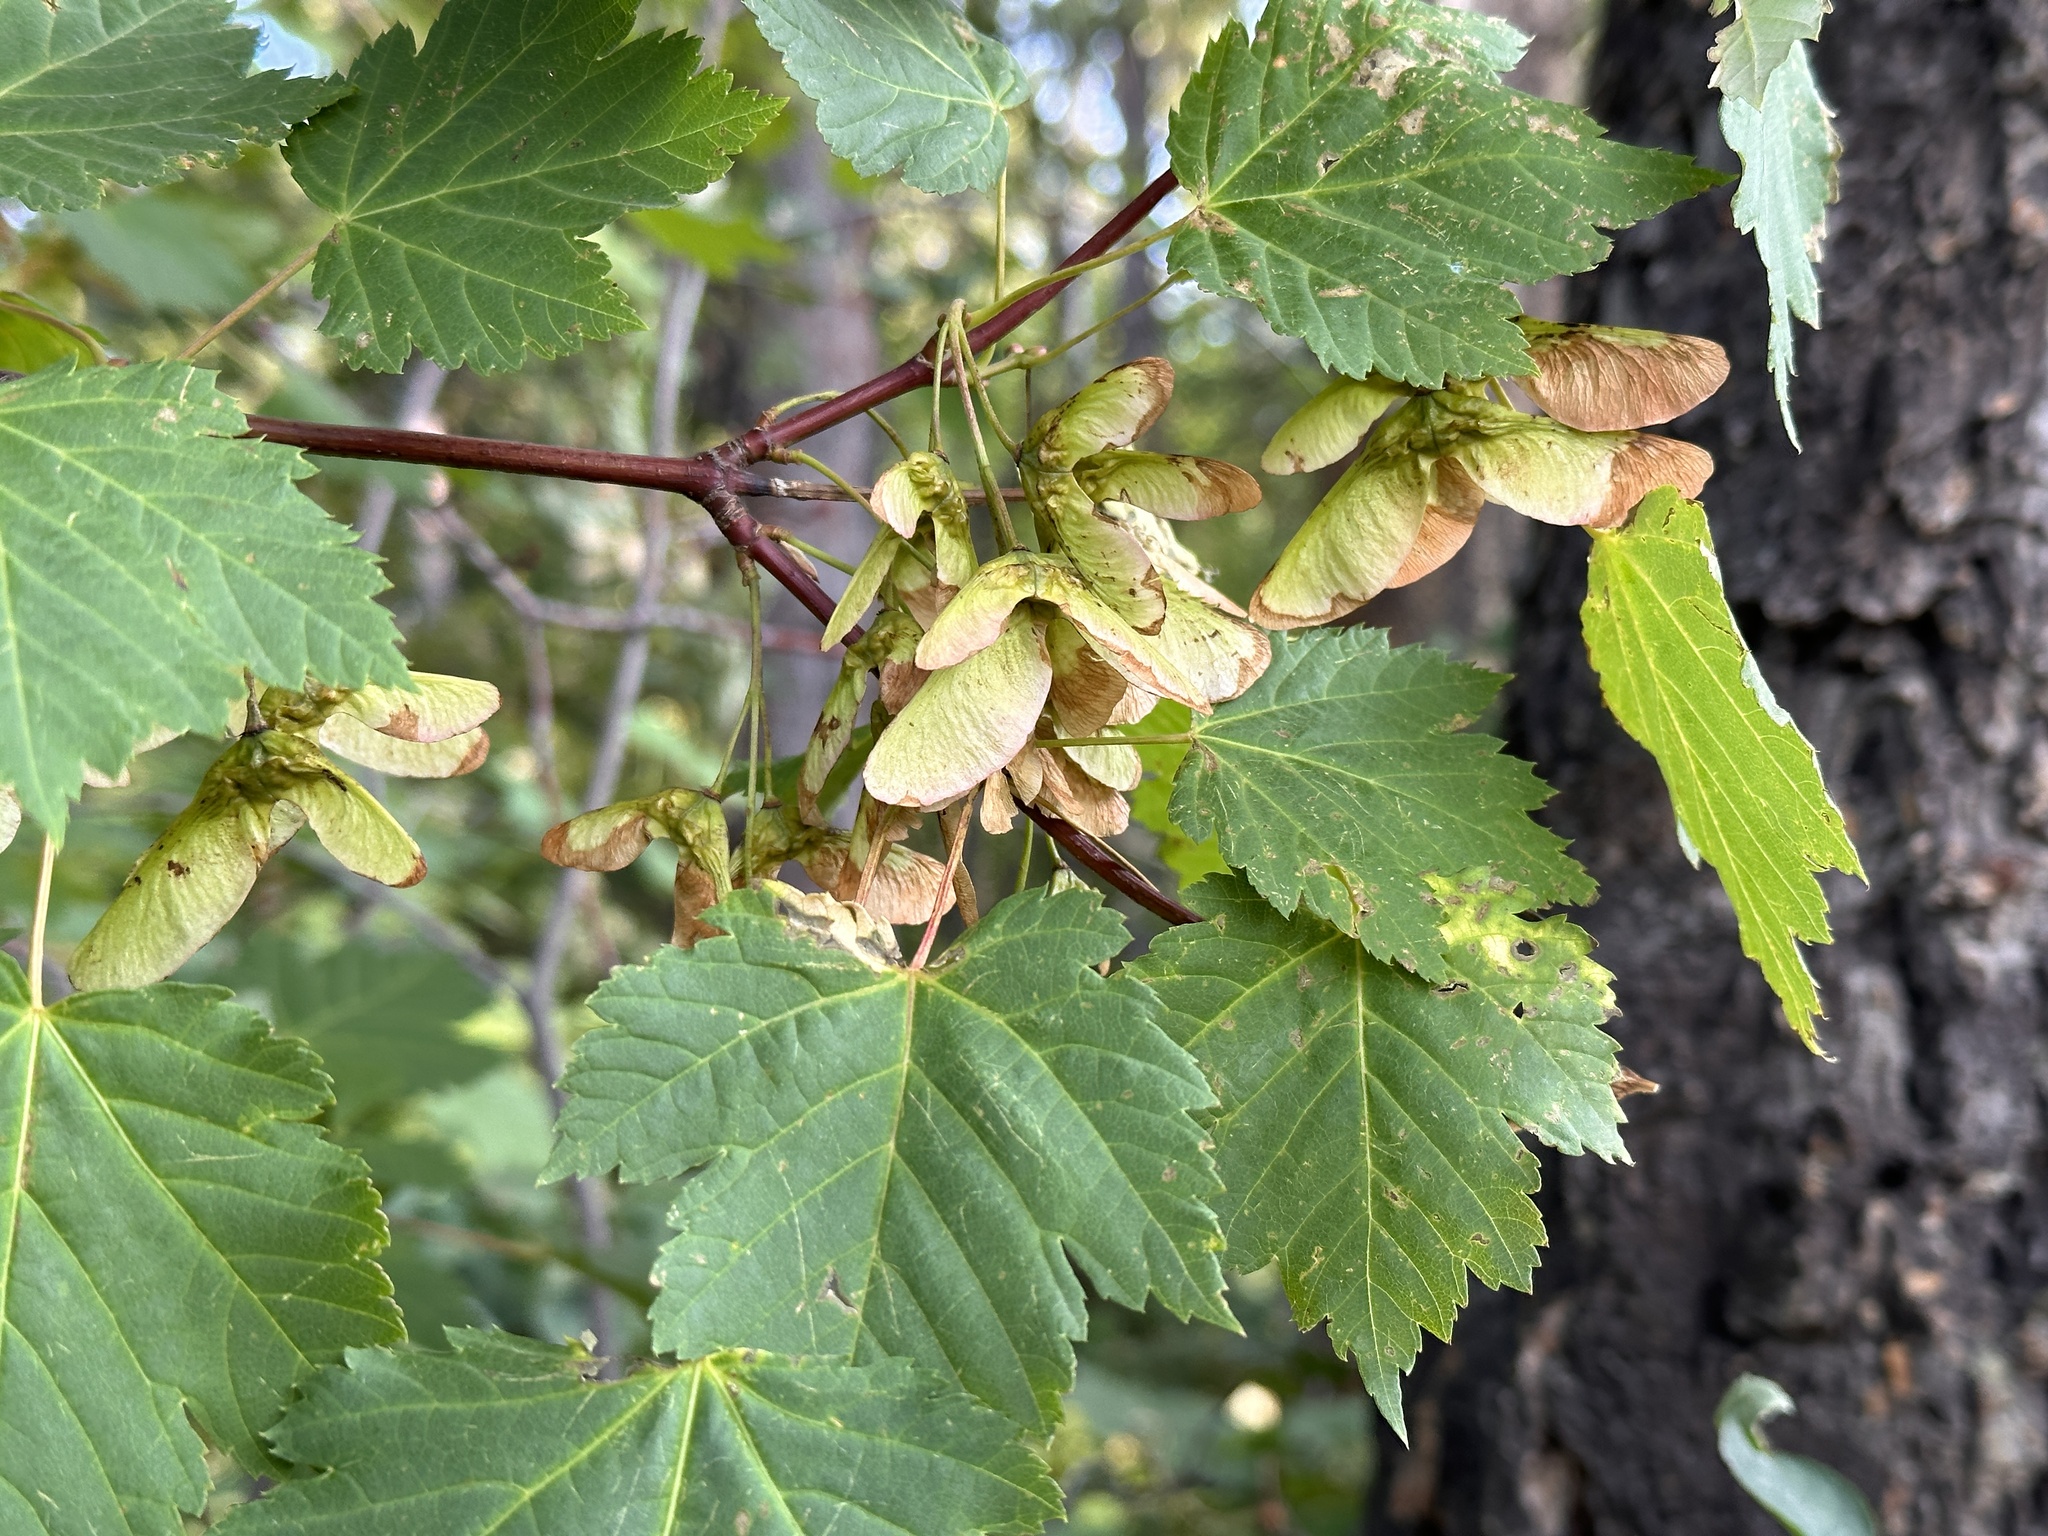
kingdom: Plantae
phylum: Tracheophyta
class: Magnoliopsida
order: Sapindales
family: Sapindaceae
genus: Acer
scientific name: Acer glabrum
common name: Rocky mountain maple
